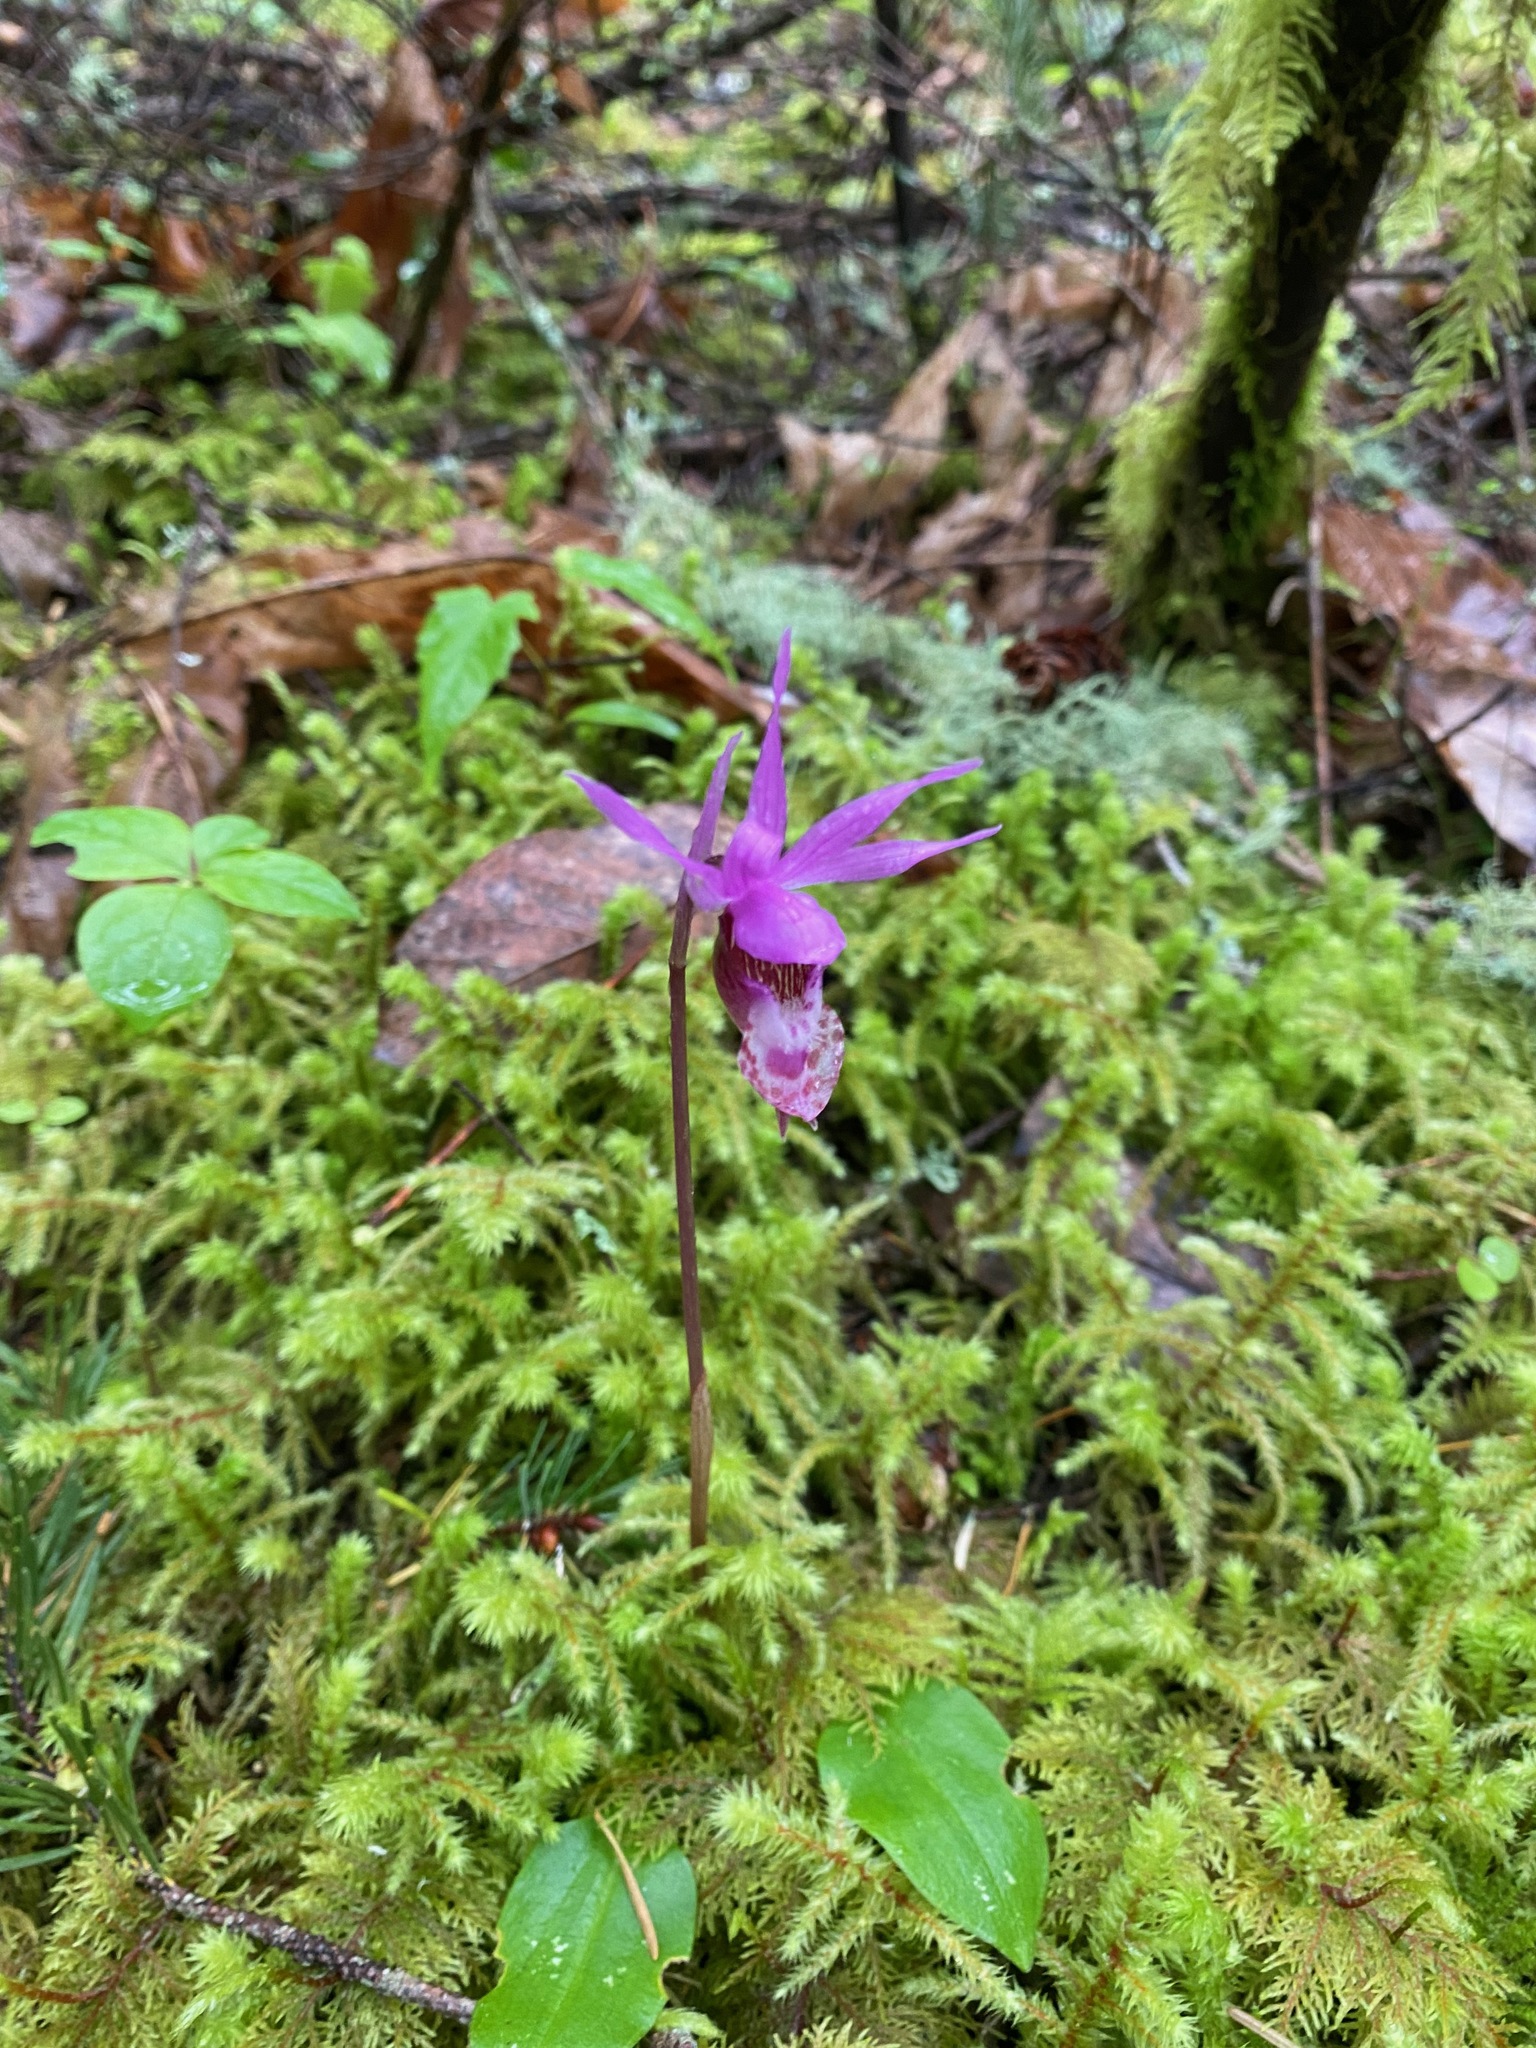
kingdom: Plantae
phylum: Tracheophyta
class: Liliopsida
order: Asparagales
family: Orchidaceae
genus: Calypso
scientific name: Calypso bulbosa
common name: Calypso
